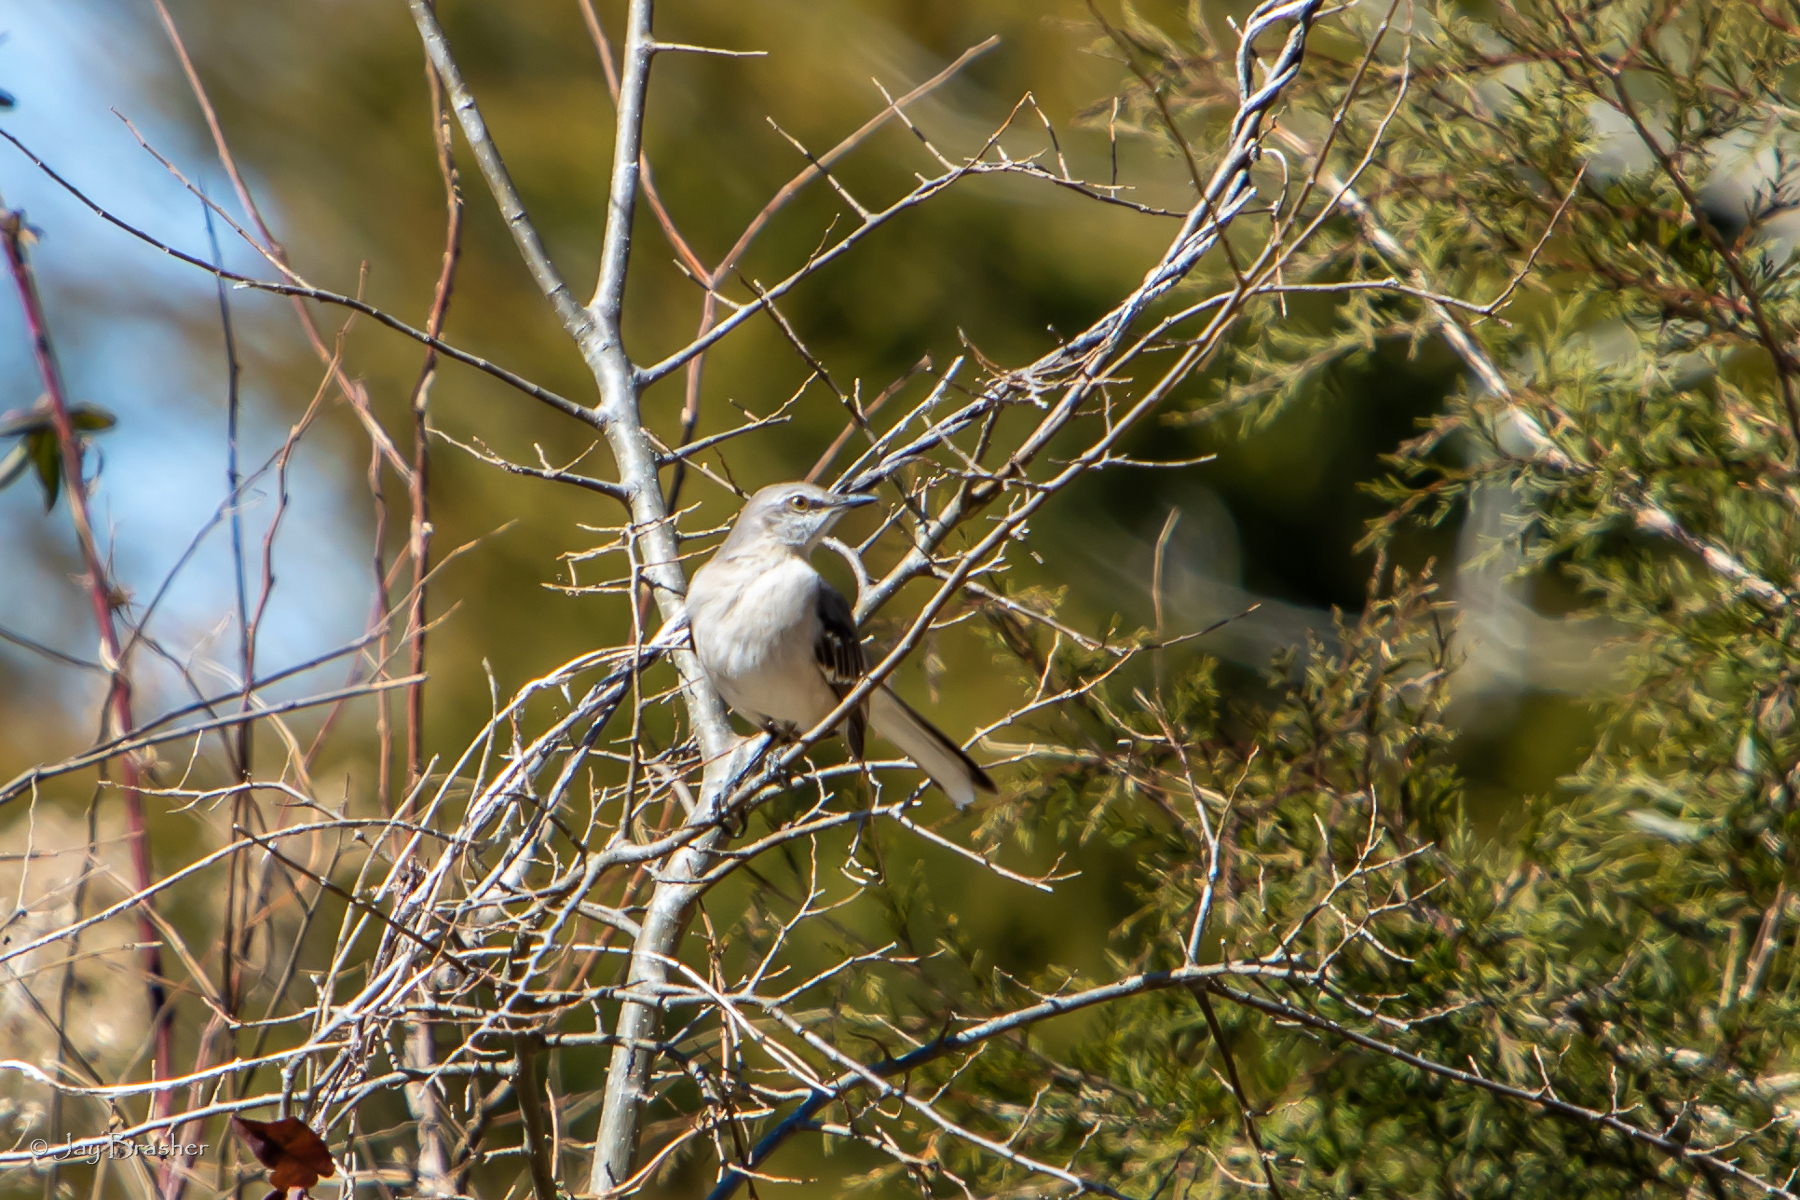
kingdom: Animalia
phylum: Chordata
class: Aves
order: Passeriformes
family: Mimidae
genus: Mimus
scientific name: Mimus polyglottos
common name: Northern mockingbird
